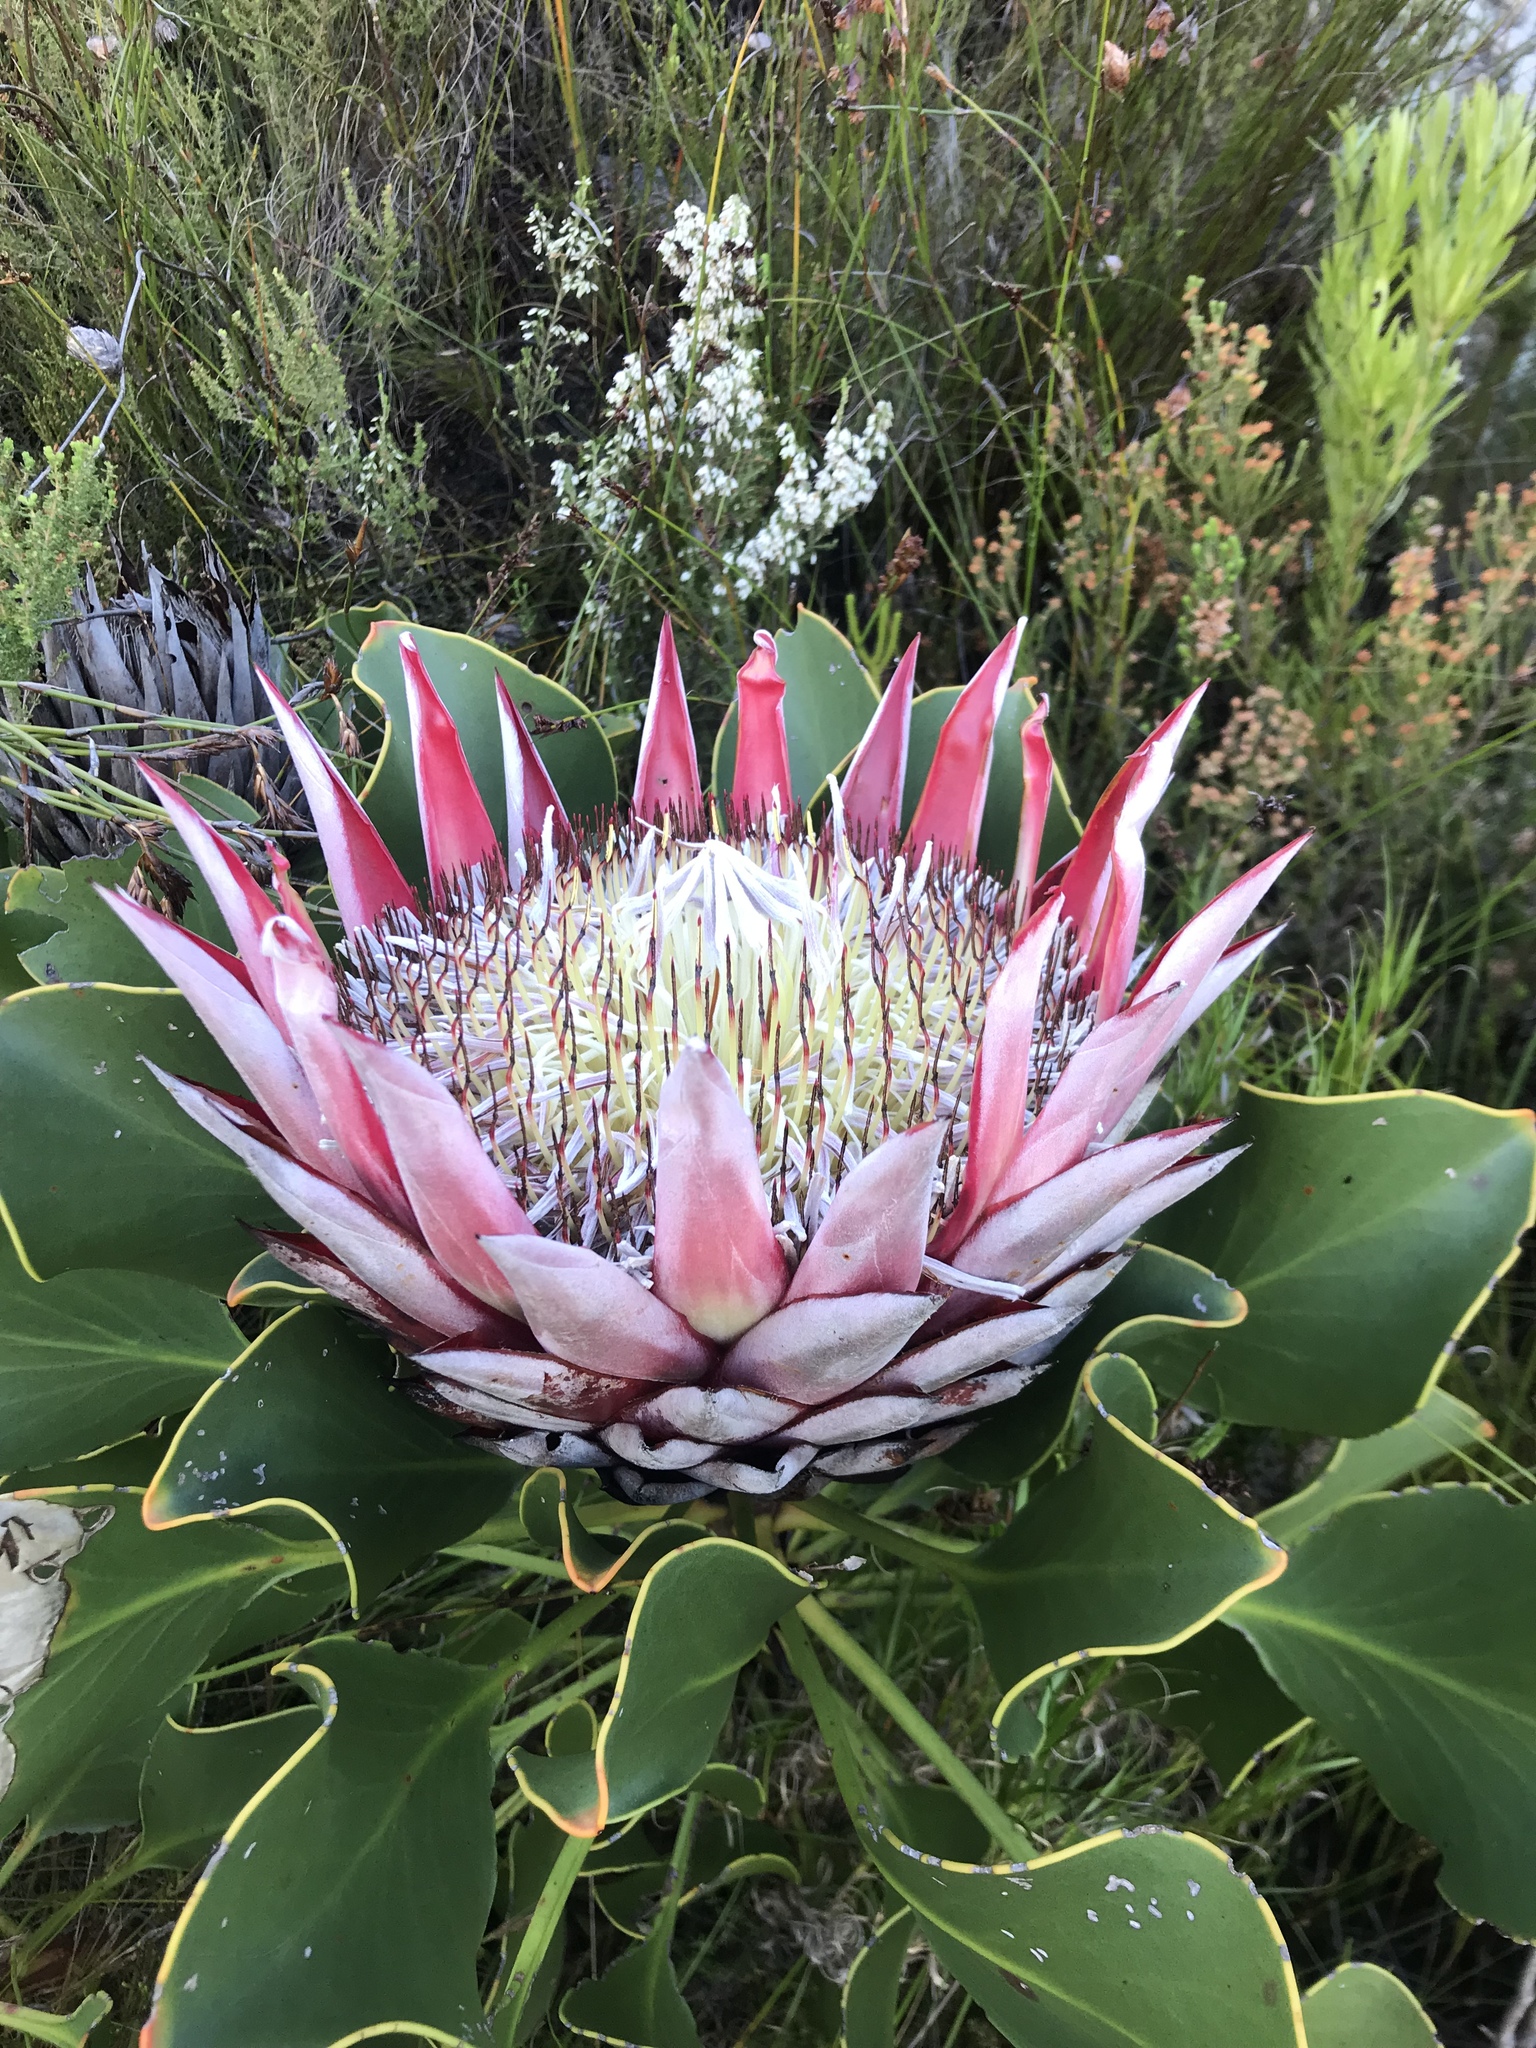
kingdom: Plantae
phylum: Tracheophyta
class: Magnoliopsida
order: Proteales
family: Proteaceae
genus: Protea
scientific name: Protea cynaroides
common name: King protea
